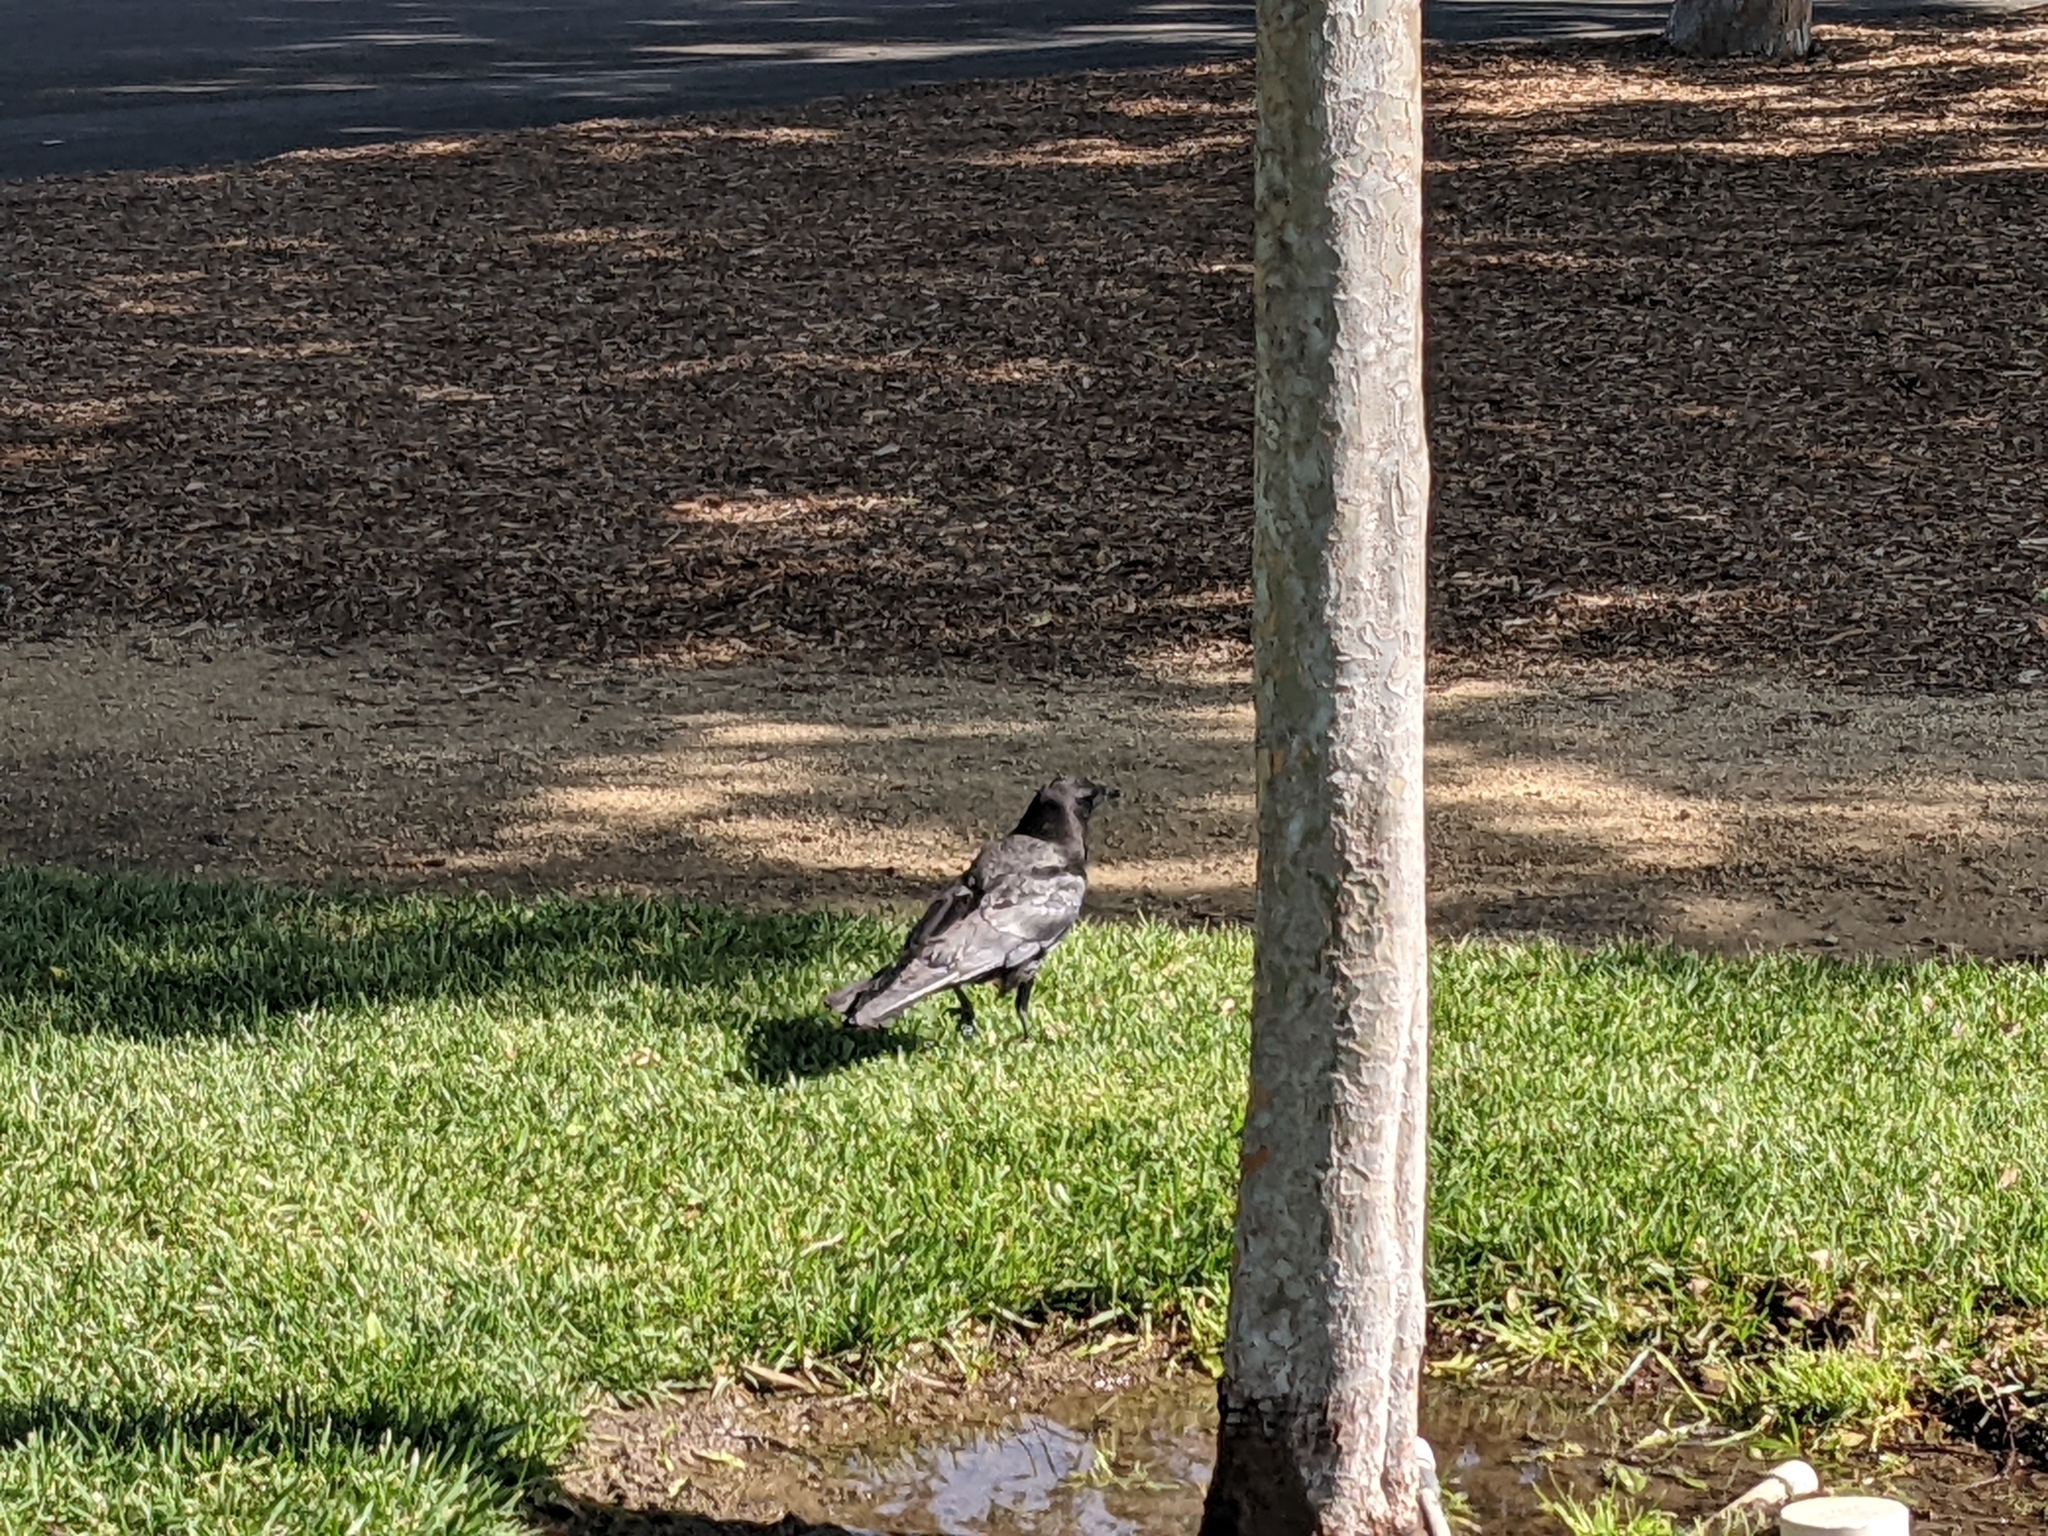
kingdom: Animalia
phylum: Chordata
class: Aves
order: Passeriformes
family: Corvidae
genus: Corvus
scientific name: Corvus brachyrhynchos
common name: American crow
